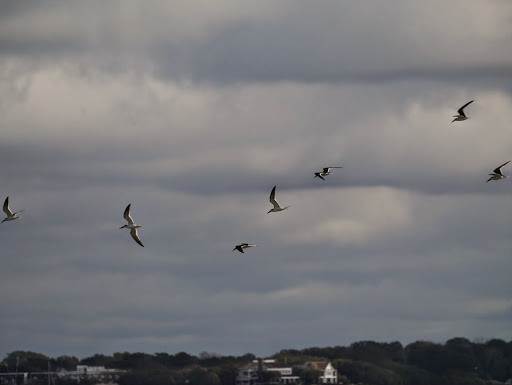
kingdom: Animalia
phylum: Chordata
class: Aves
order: Charadriiformes
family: Laridae
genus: Rynchops
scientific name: Rynchops niger
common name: Black skimmer
